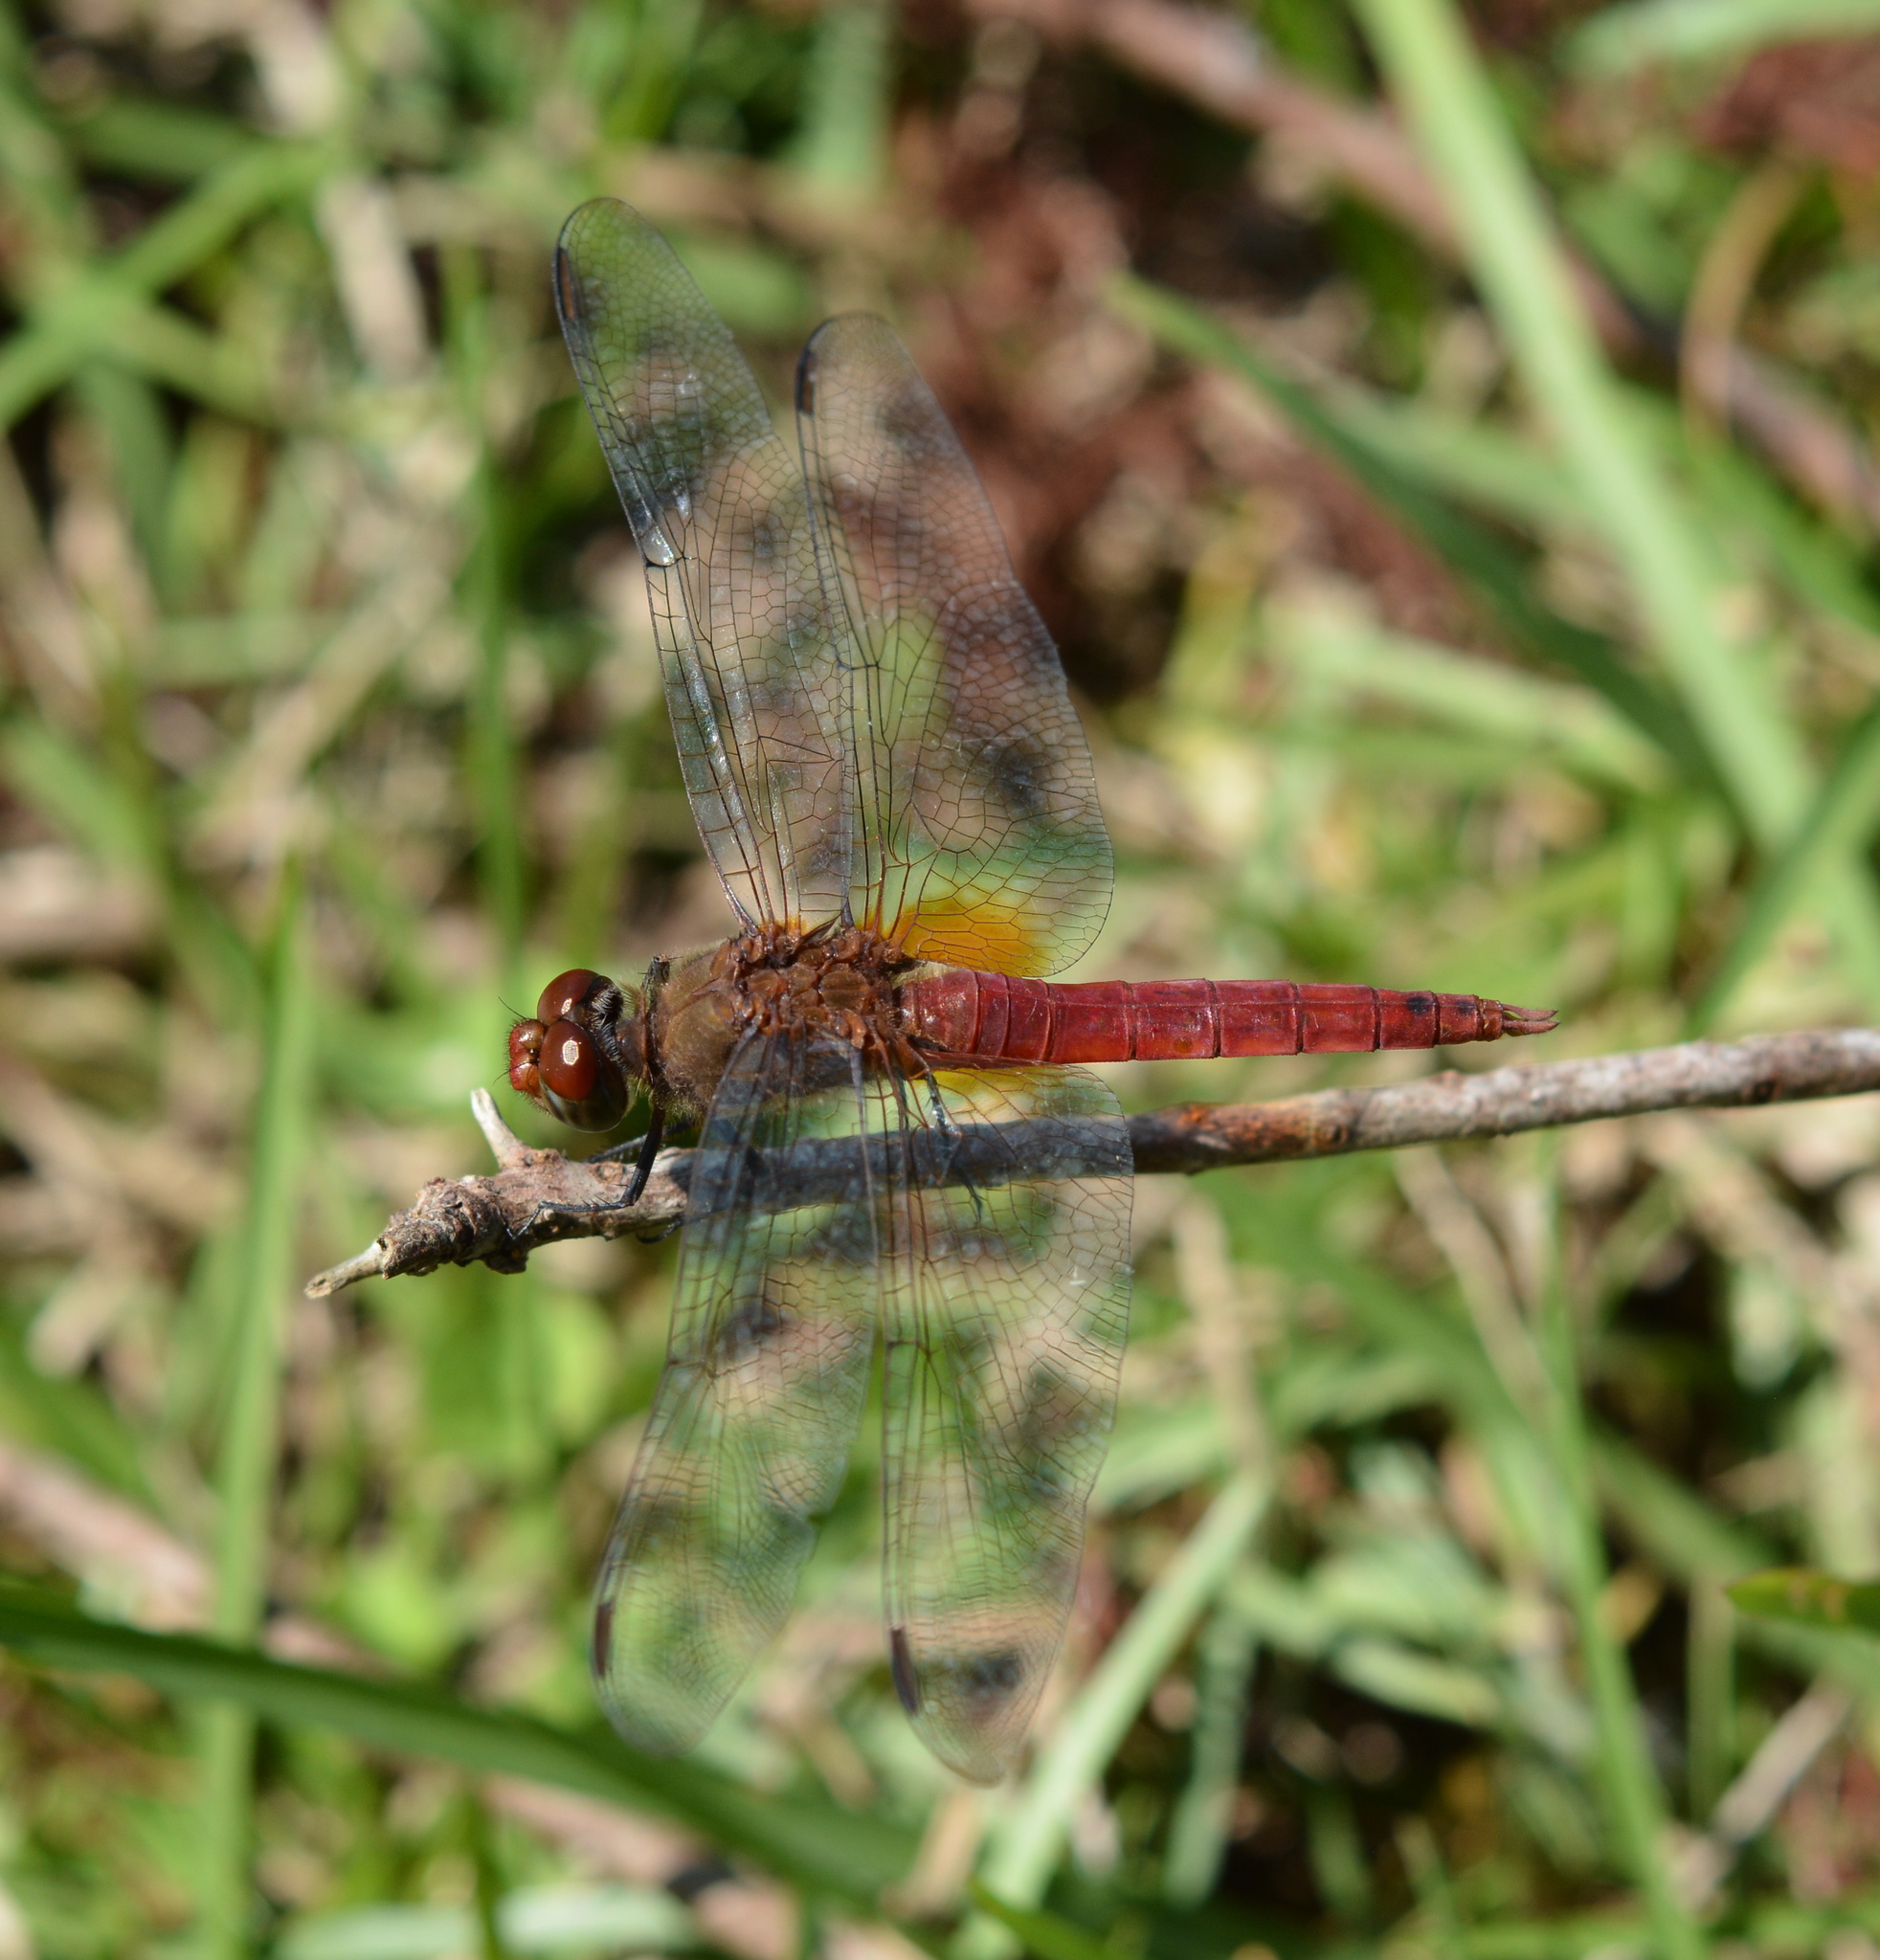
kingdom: Animalia
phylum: Arthropoda
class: Insecta
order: Odonata
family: Libellulidae
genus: Brachymesia
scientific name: Brachymesia furcata
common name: Red-taled pennant
